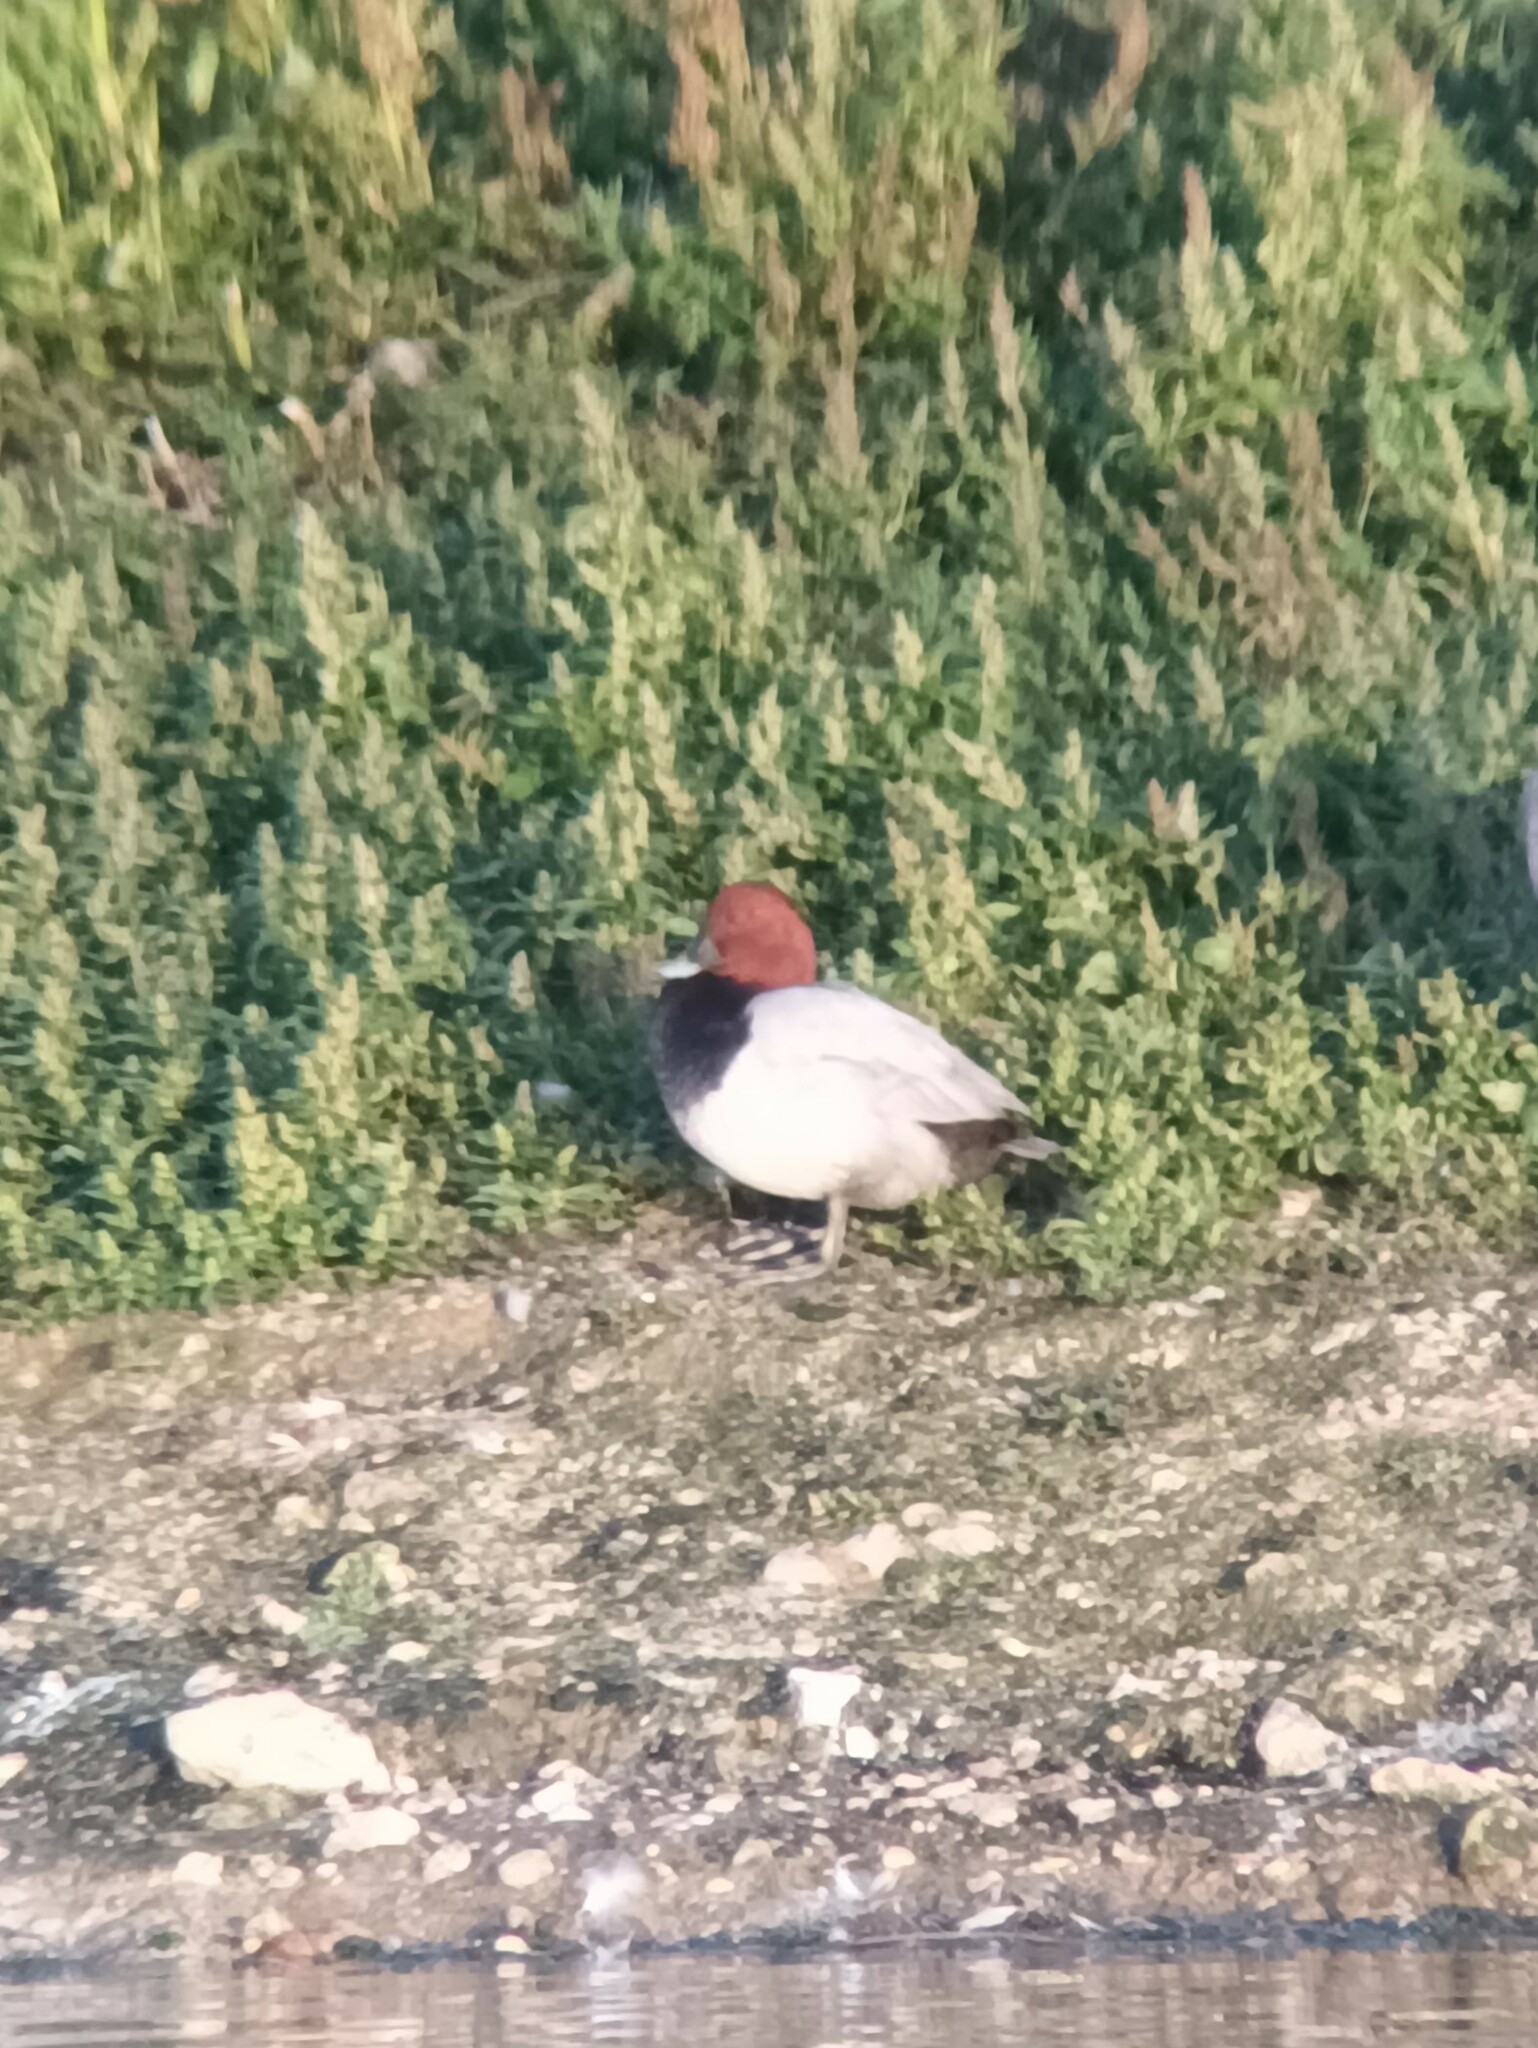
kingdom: Animalia
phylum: Chordata
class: Aves
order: Anseriformes
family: Anatidae
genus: Aythya
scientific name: Aythya ferina
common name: Common pochard
